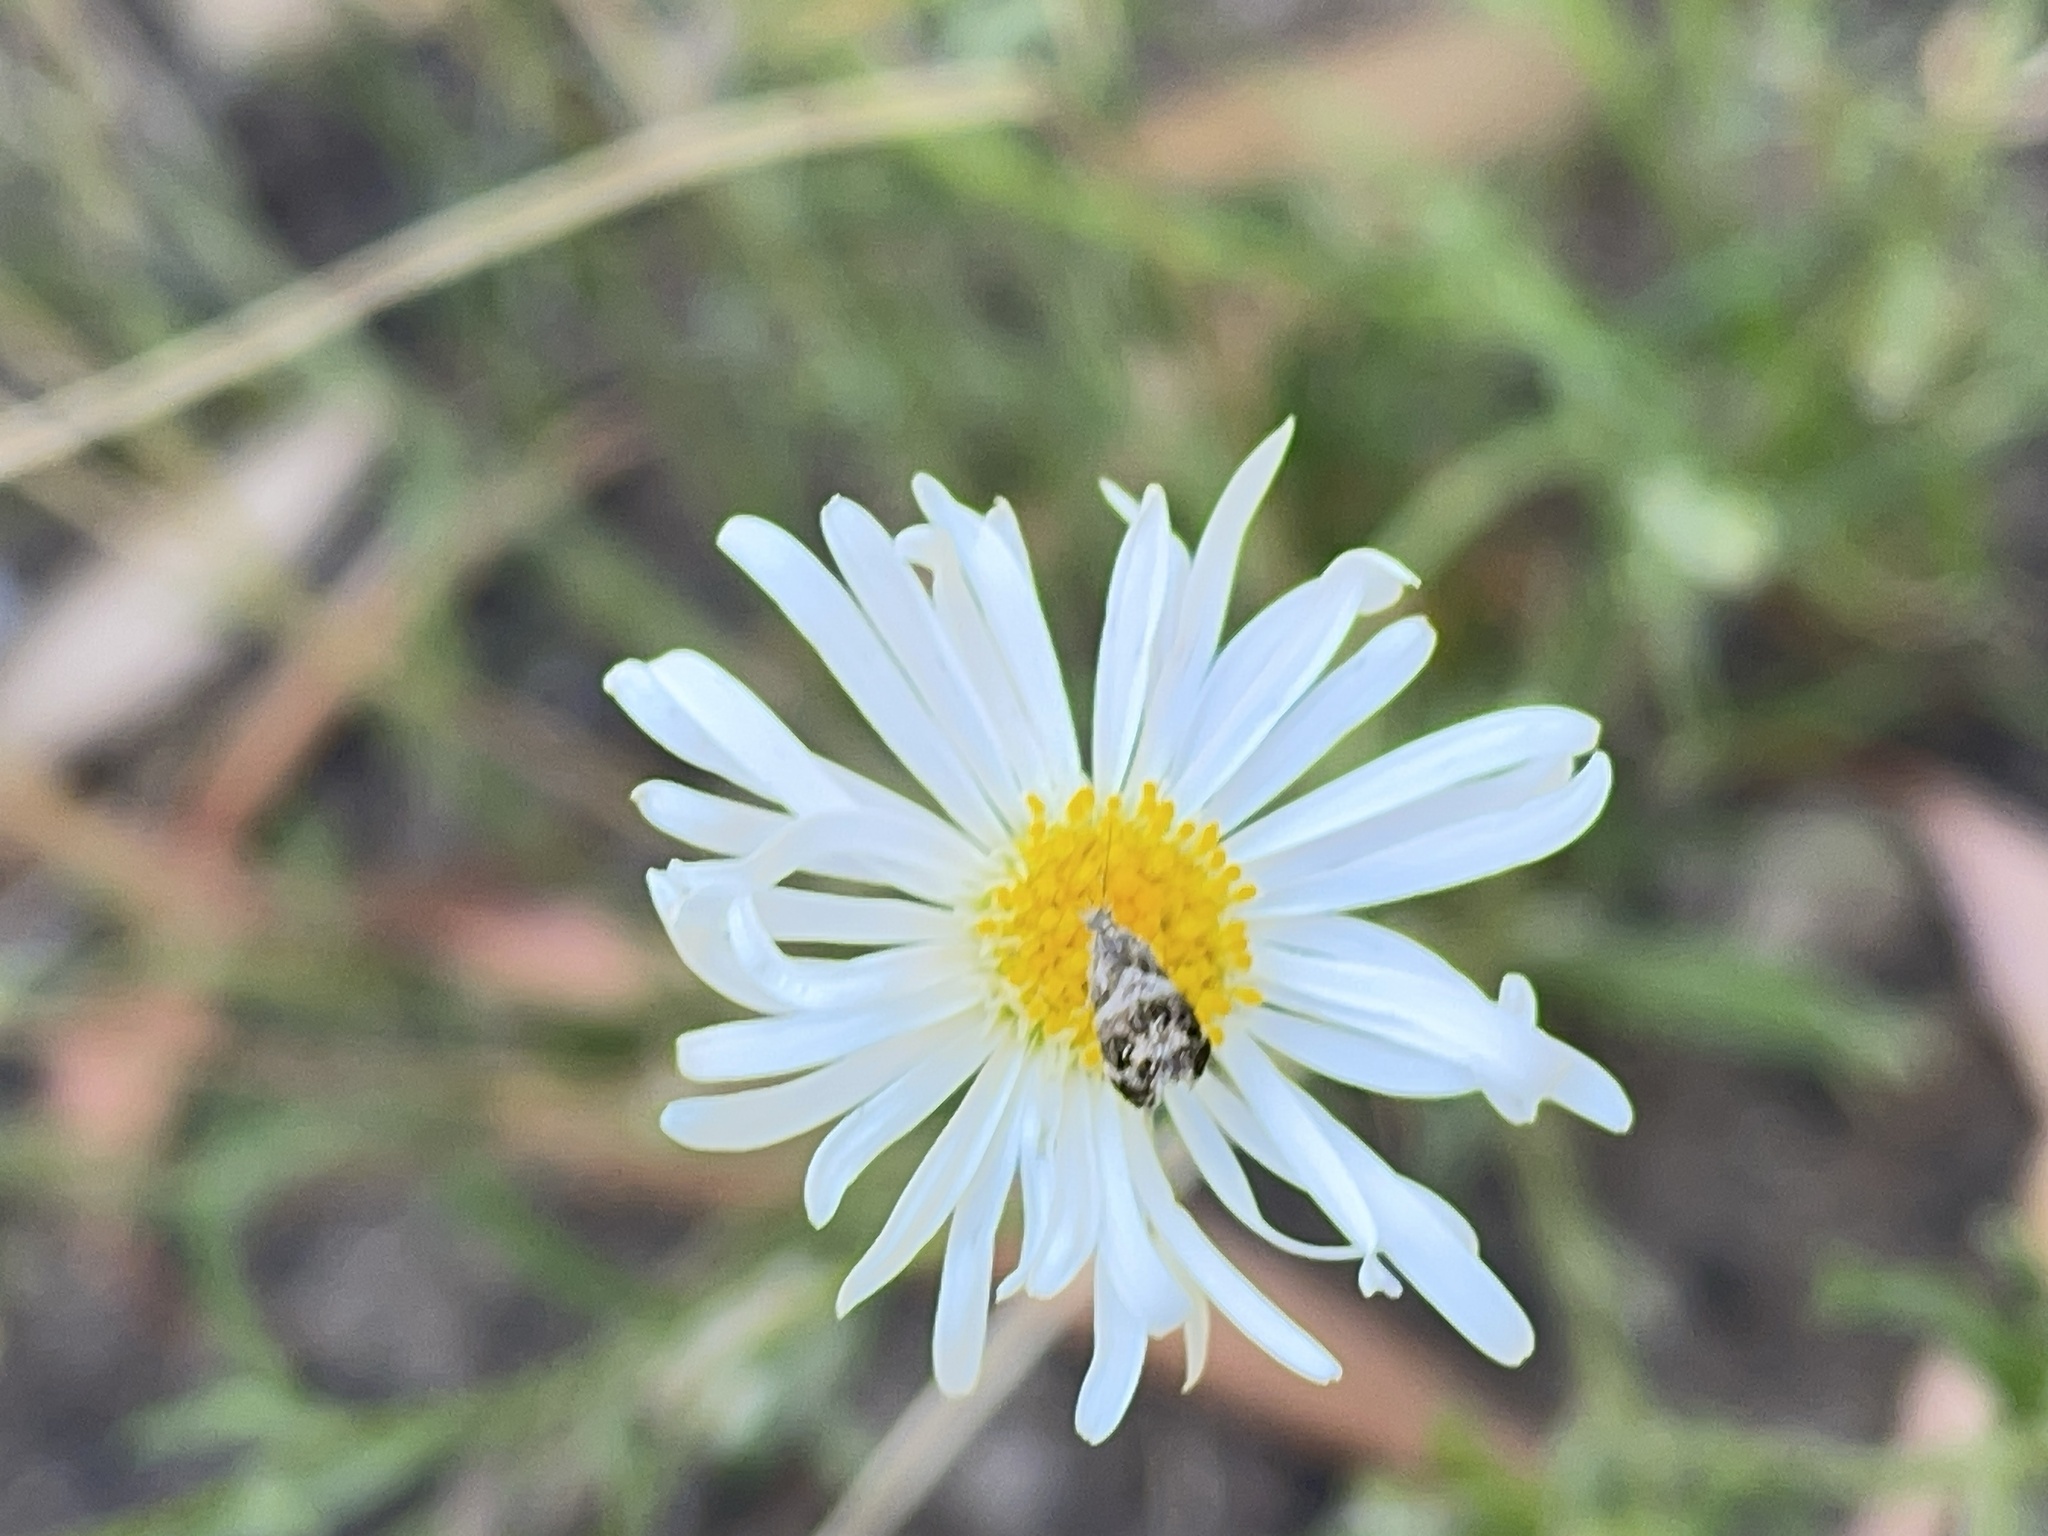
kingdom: Animalia
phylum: Arthropoda
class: Insecta
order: Lepidoptera
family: Choreutidae
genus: Tebenna
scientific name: Tebenna micalis
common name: Vagrant twitcher
